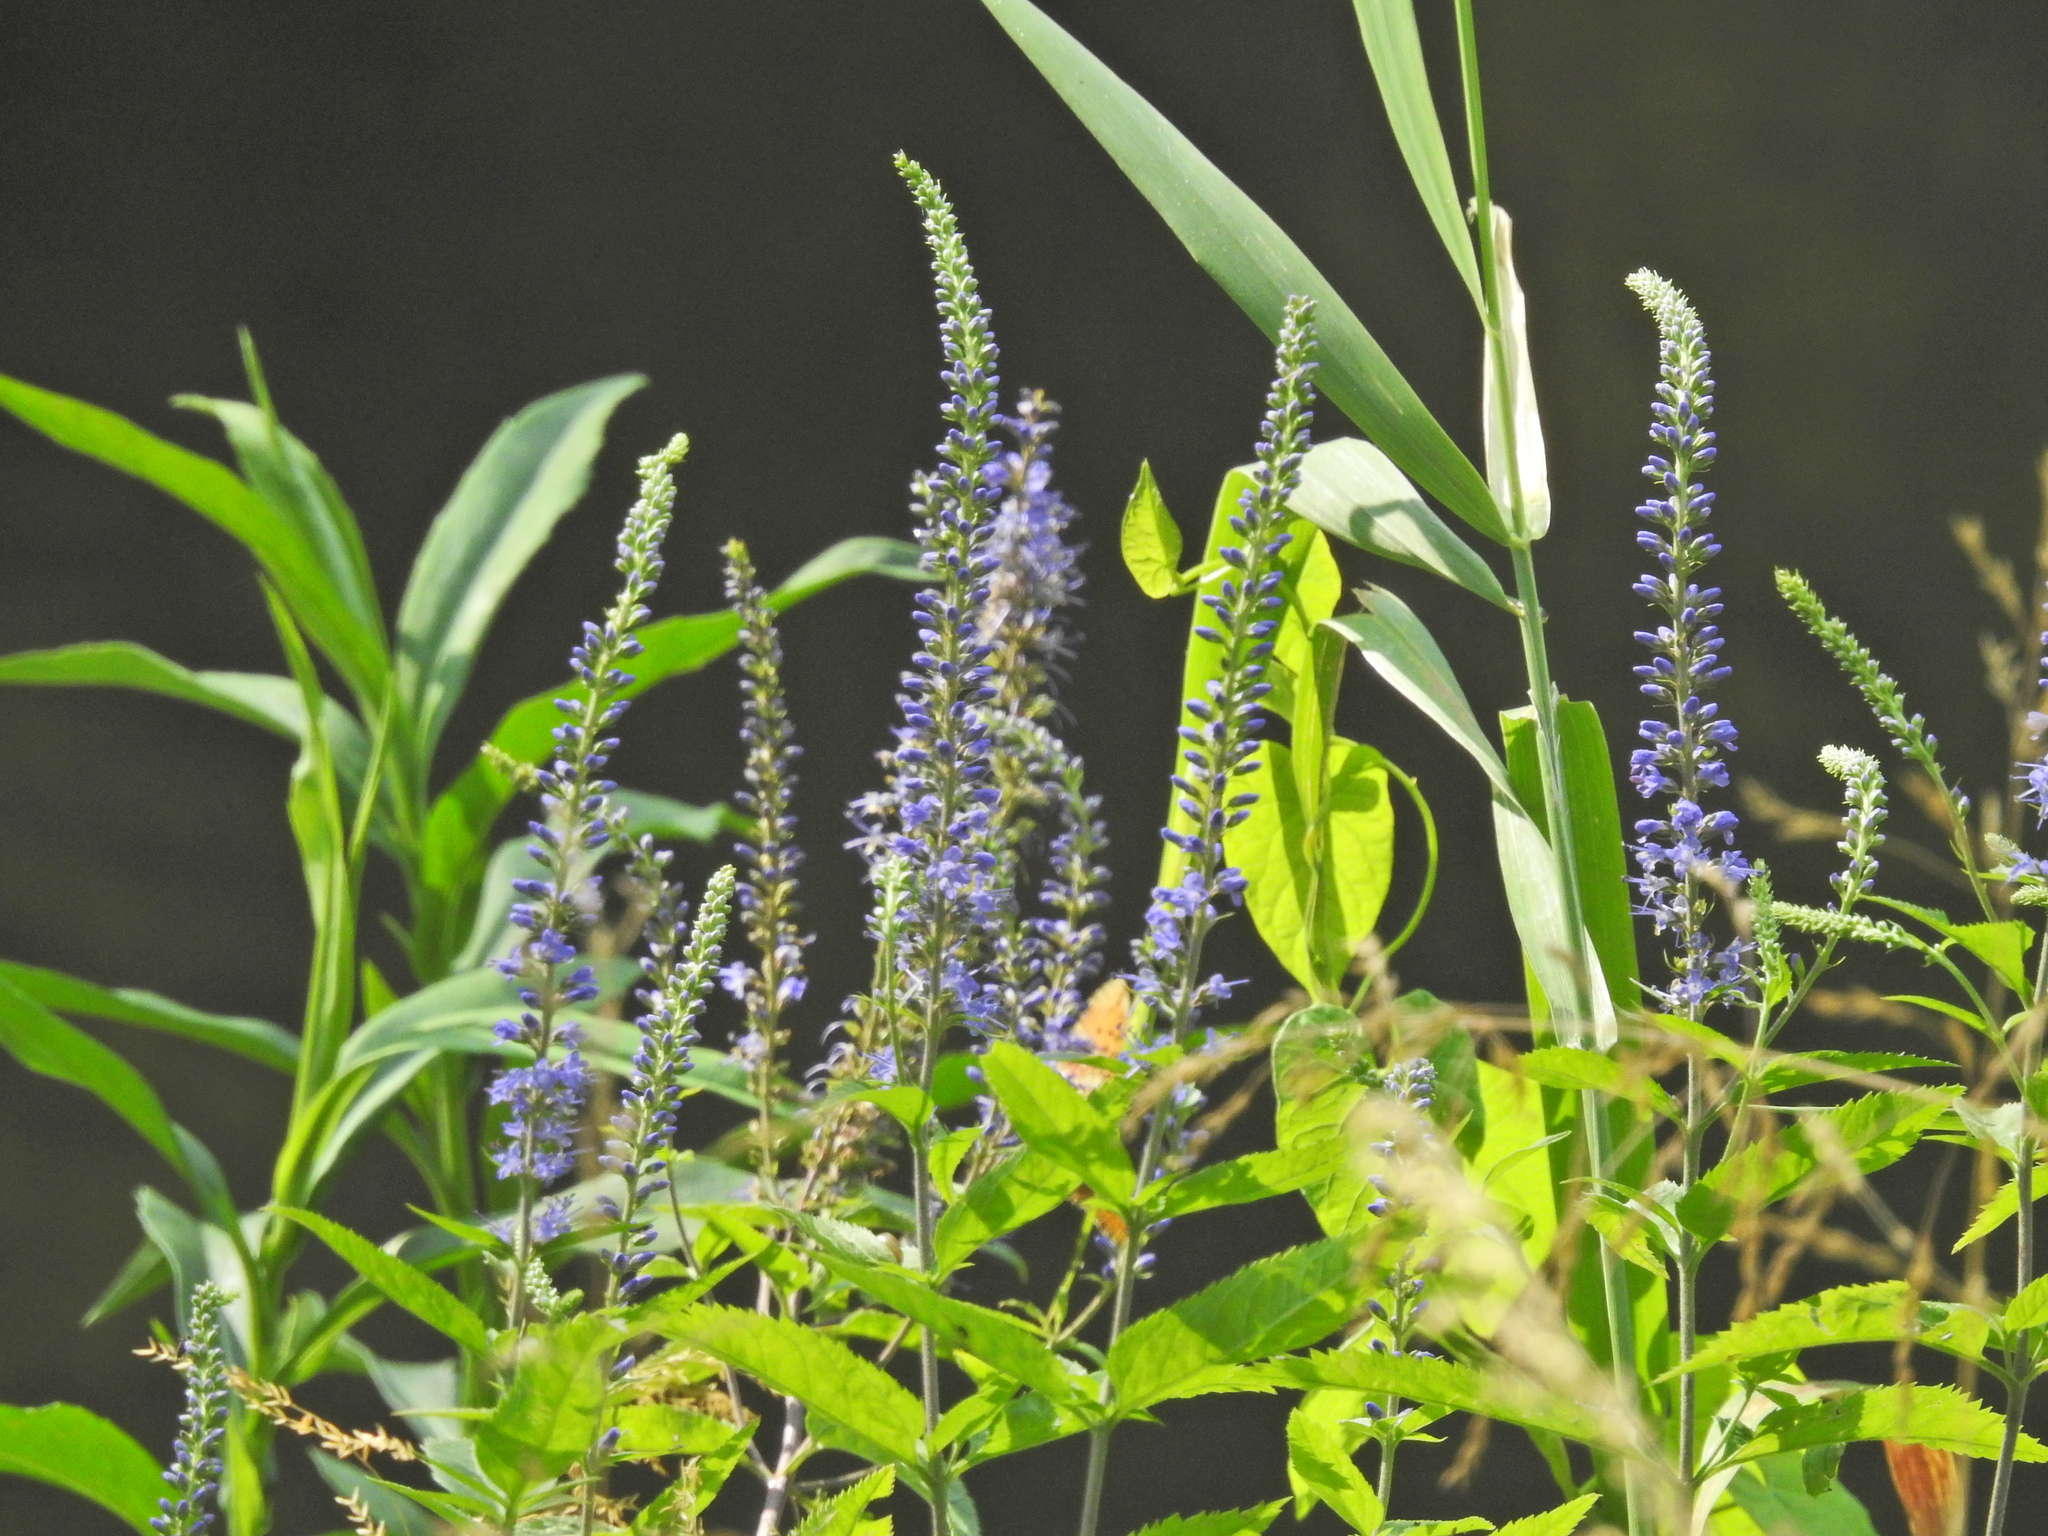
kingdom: Plantae
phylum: Tracheophyta
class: Magnoliopsida
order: Lamiales
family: Plantaginaceae
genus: Veronica
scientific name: Veronica longifolia
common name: Garden speedwell
